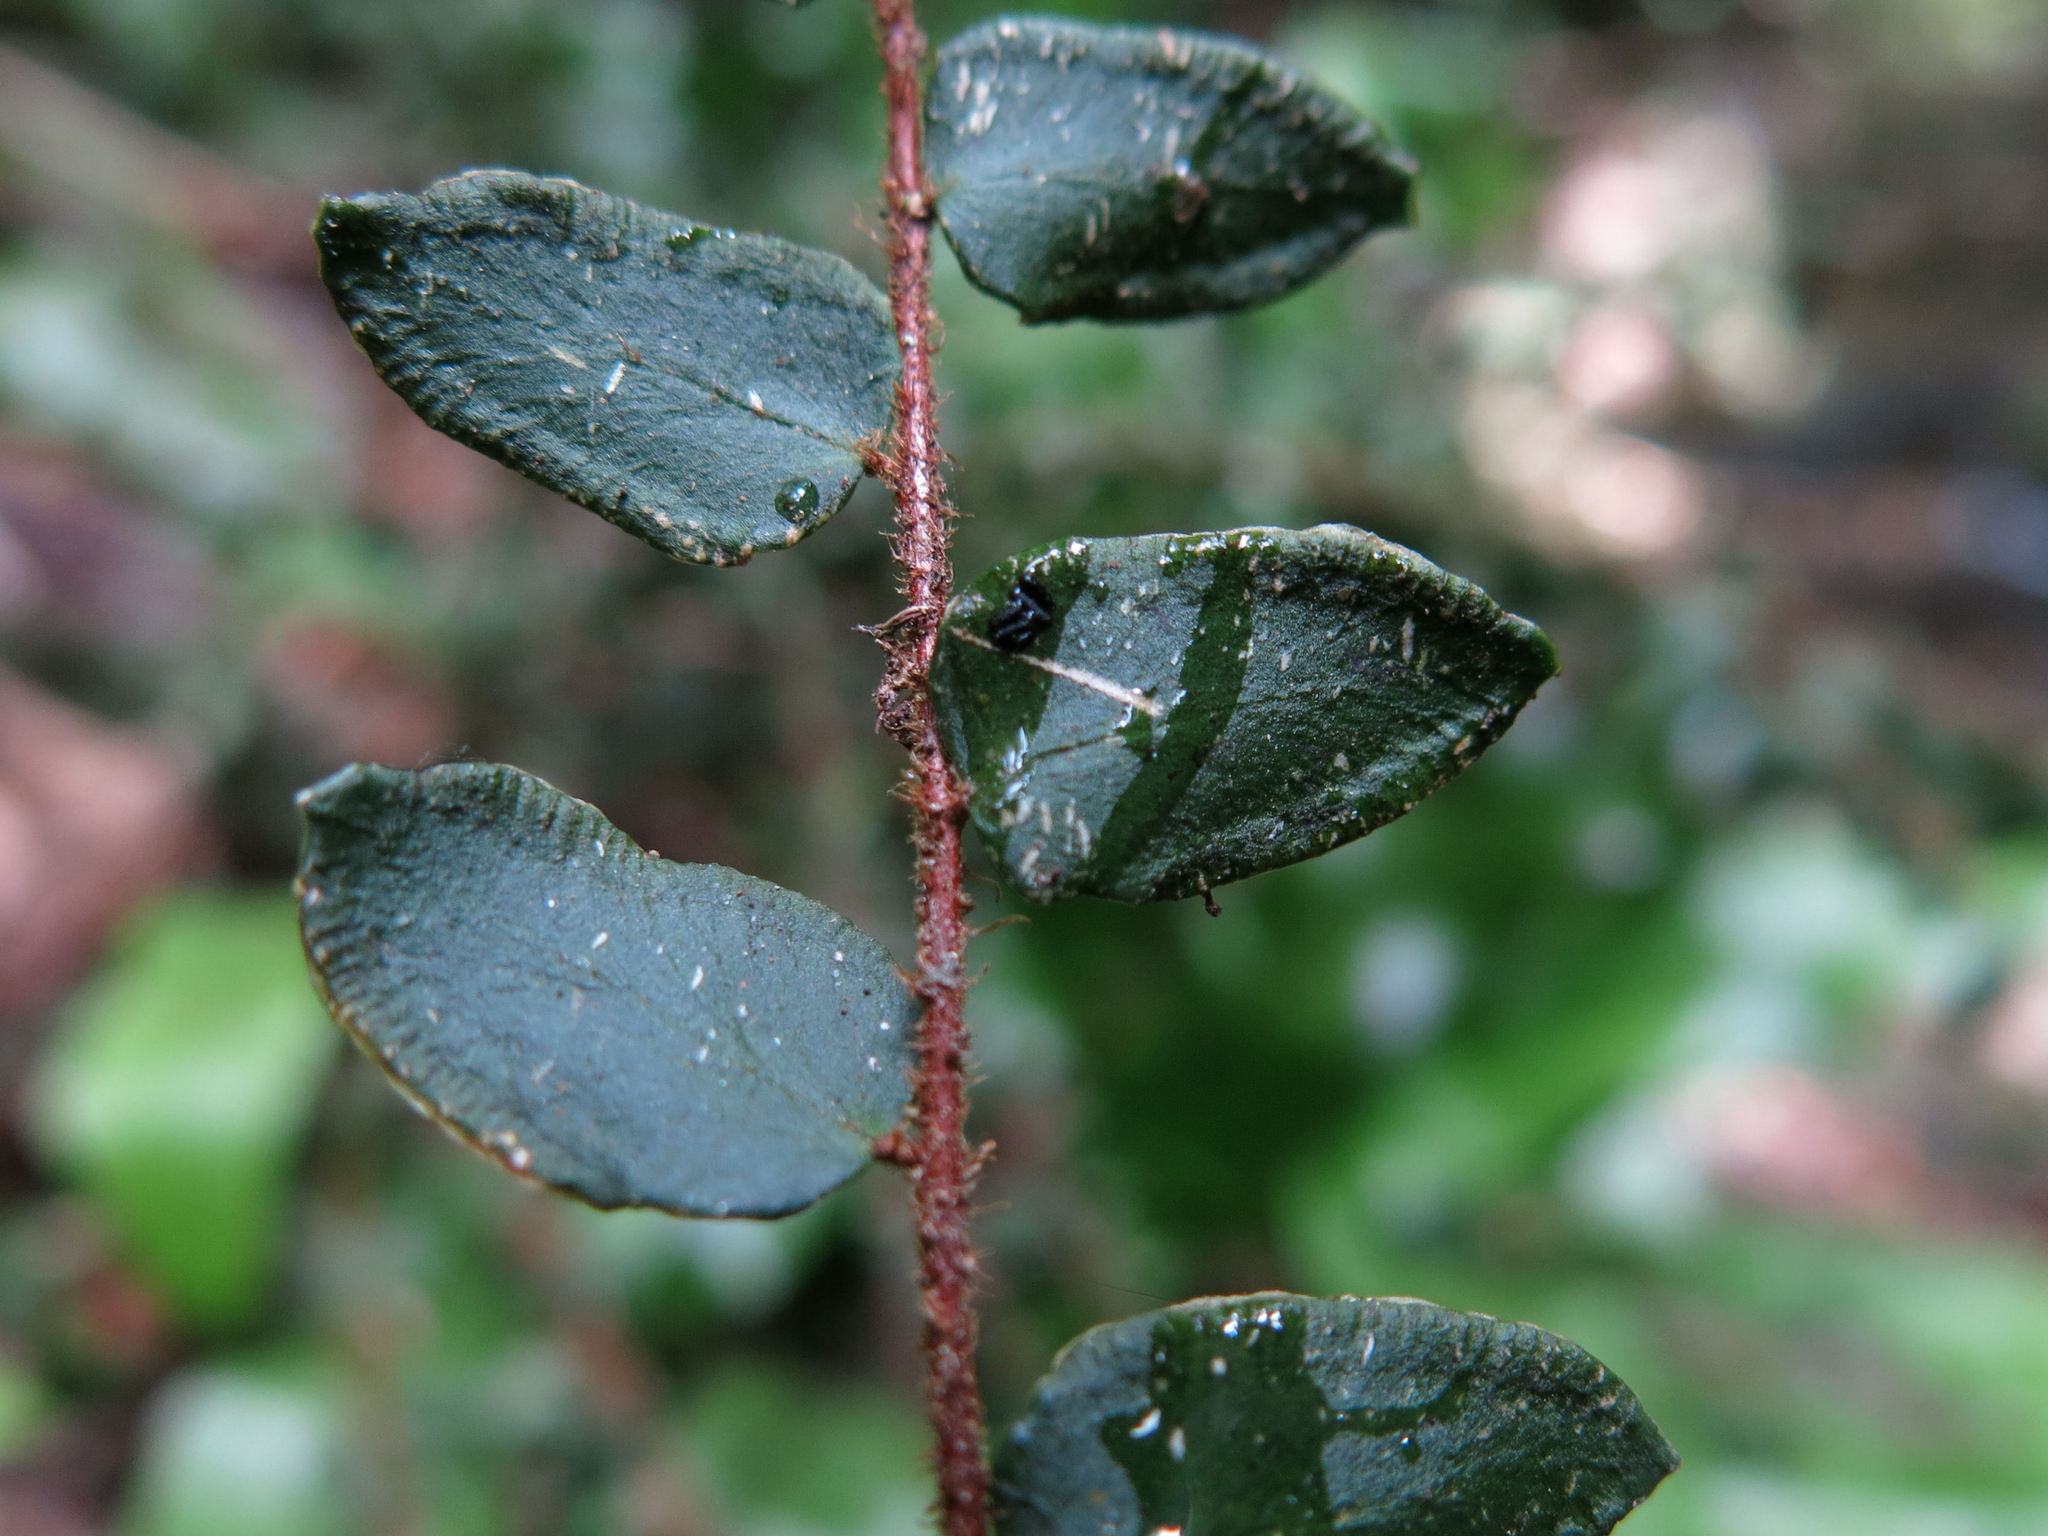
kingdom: Plantae
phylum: Tracheophyta
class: Polypodiopsida
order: Polypodiales
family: Pteridaceae
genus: Pellaea
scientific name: Pellaea rotundifolia
